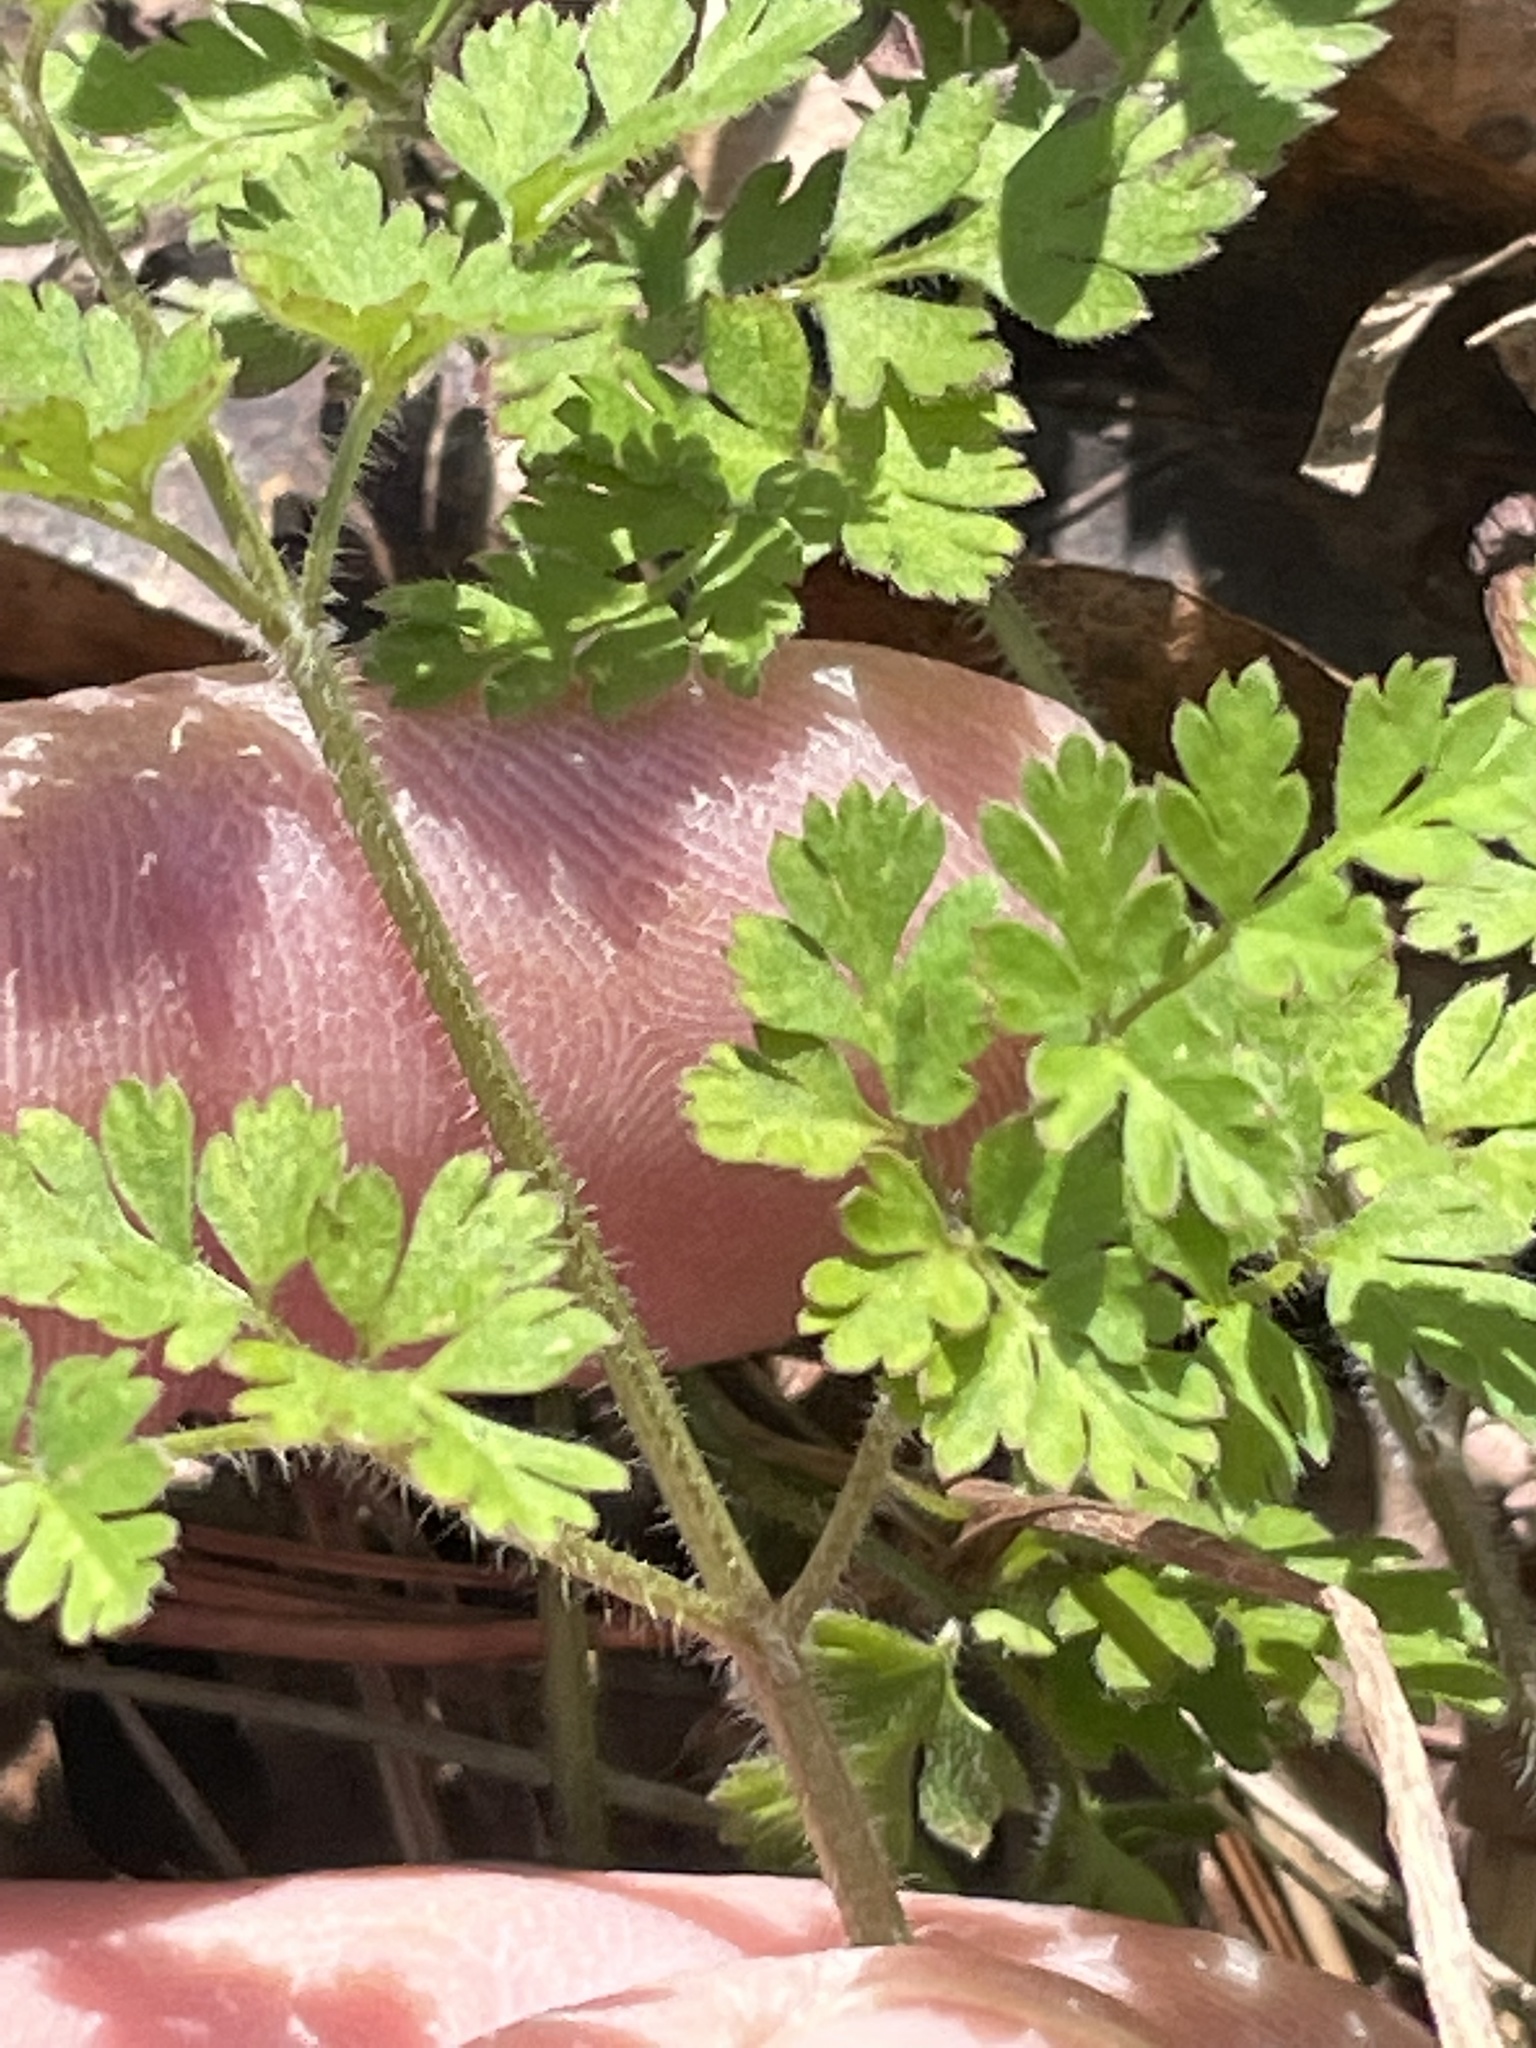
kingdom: Plantae
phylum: Tracheophyta
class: Magnoliopsida
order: Apiales
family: Apiaceae
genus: Chaerophyllum
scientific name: Chaerophyllum tainturieri
